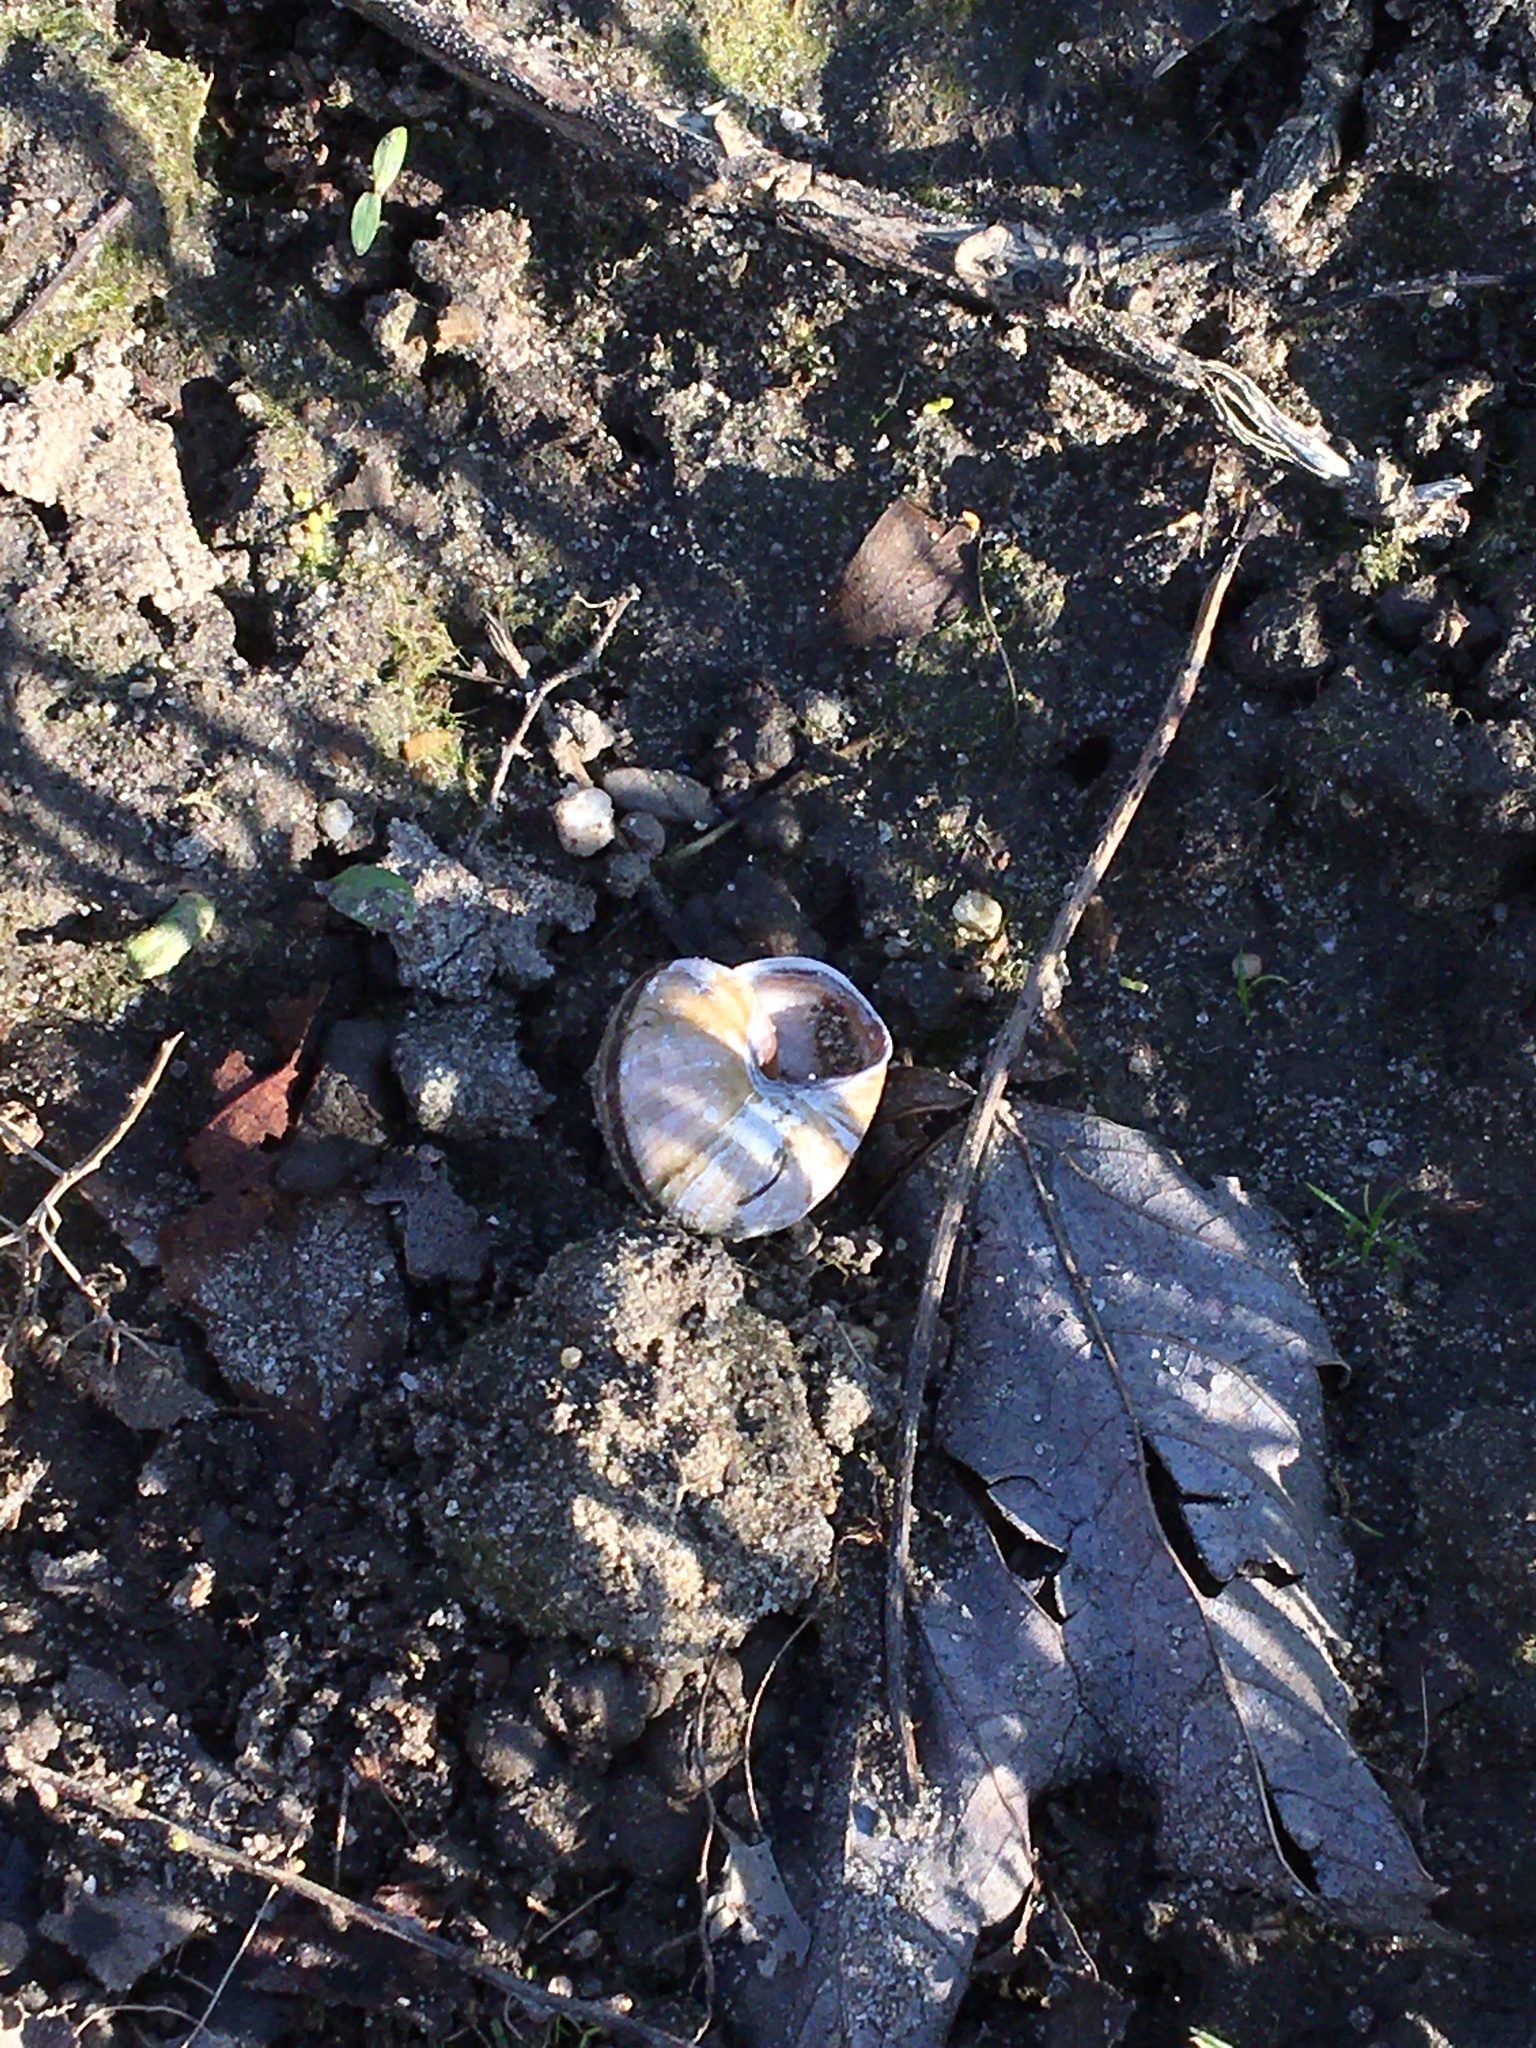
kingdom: Animalia
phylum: Mollusca
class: Gastropoda
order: Stylommatophora
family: Helicidae
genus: Cepaea
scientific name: Cepaea nemoralis
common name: Grovesnail
